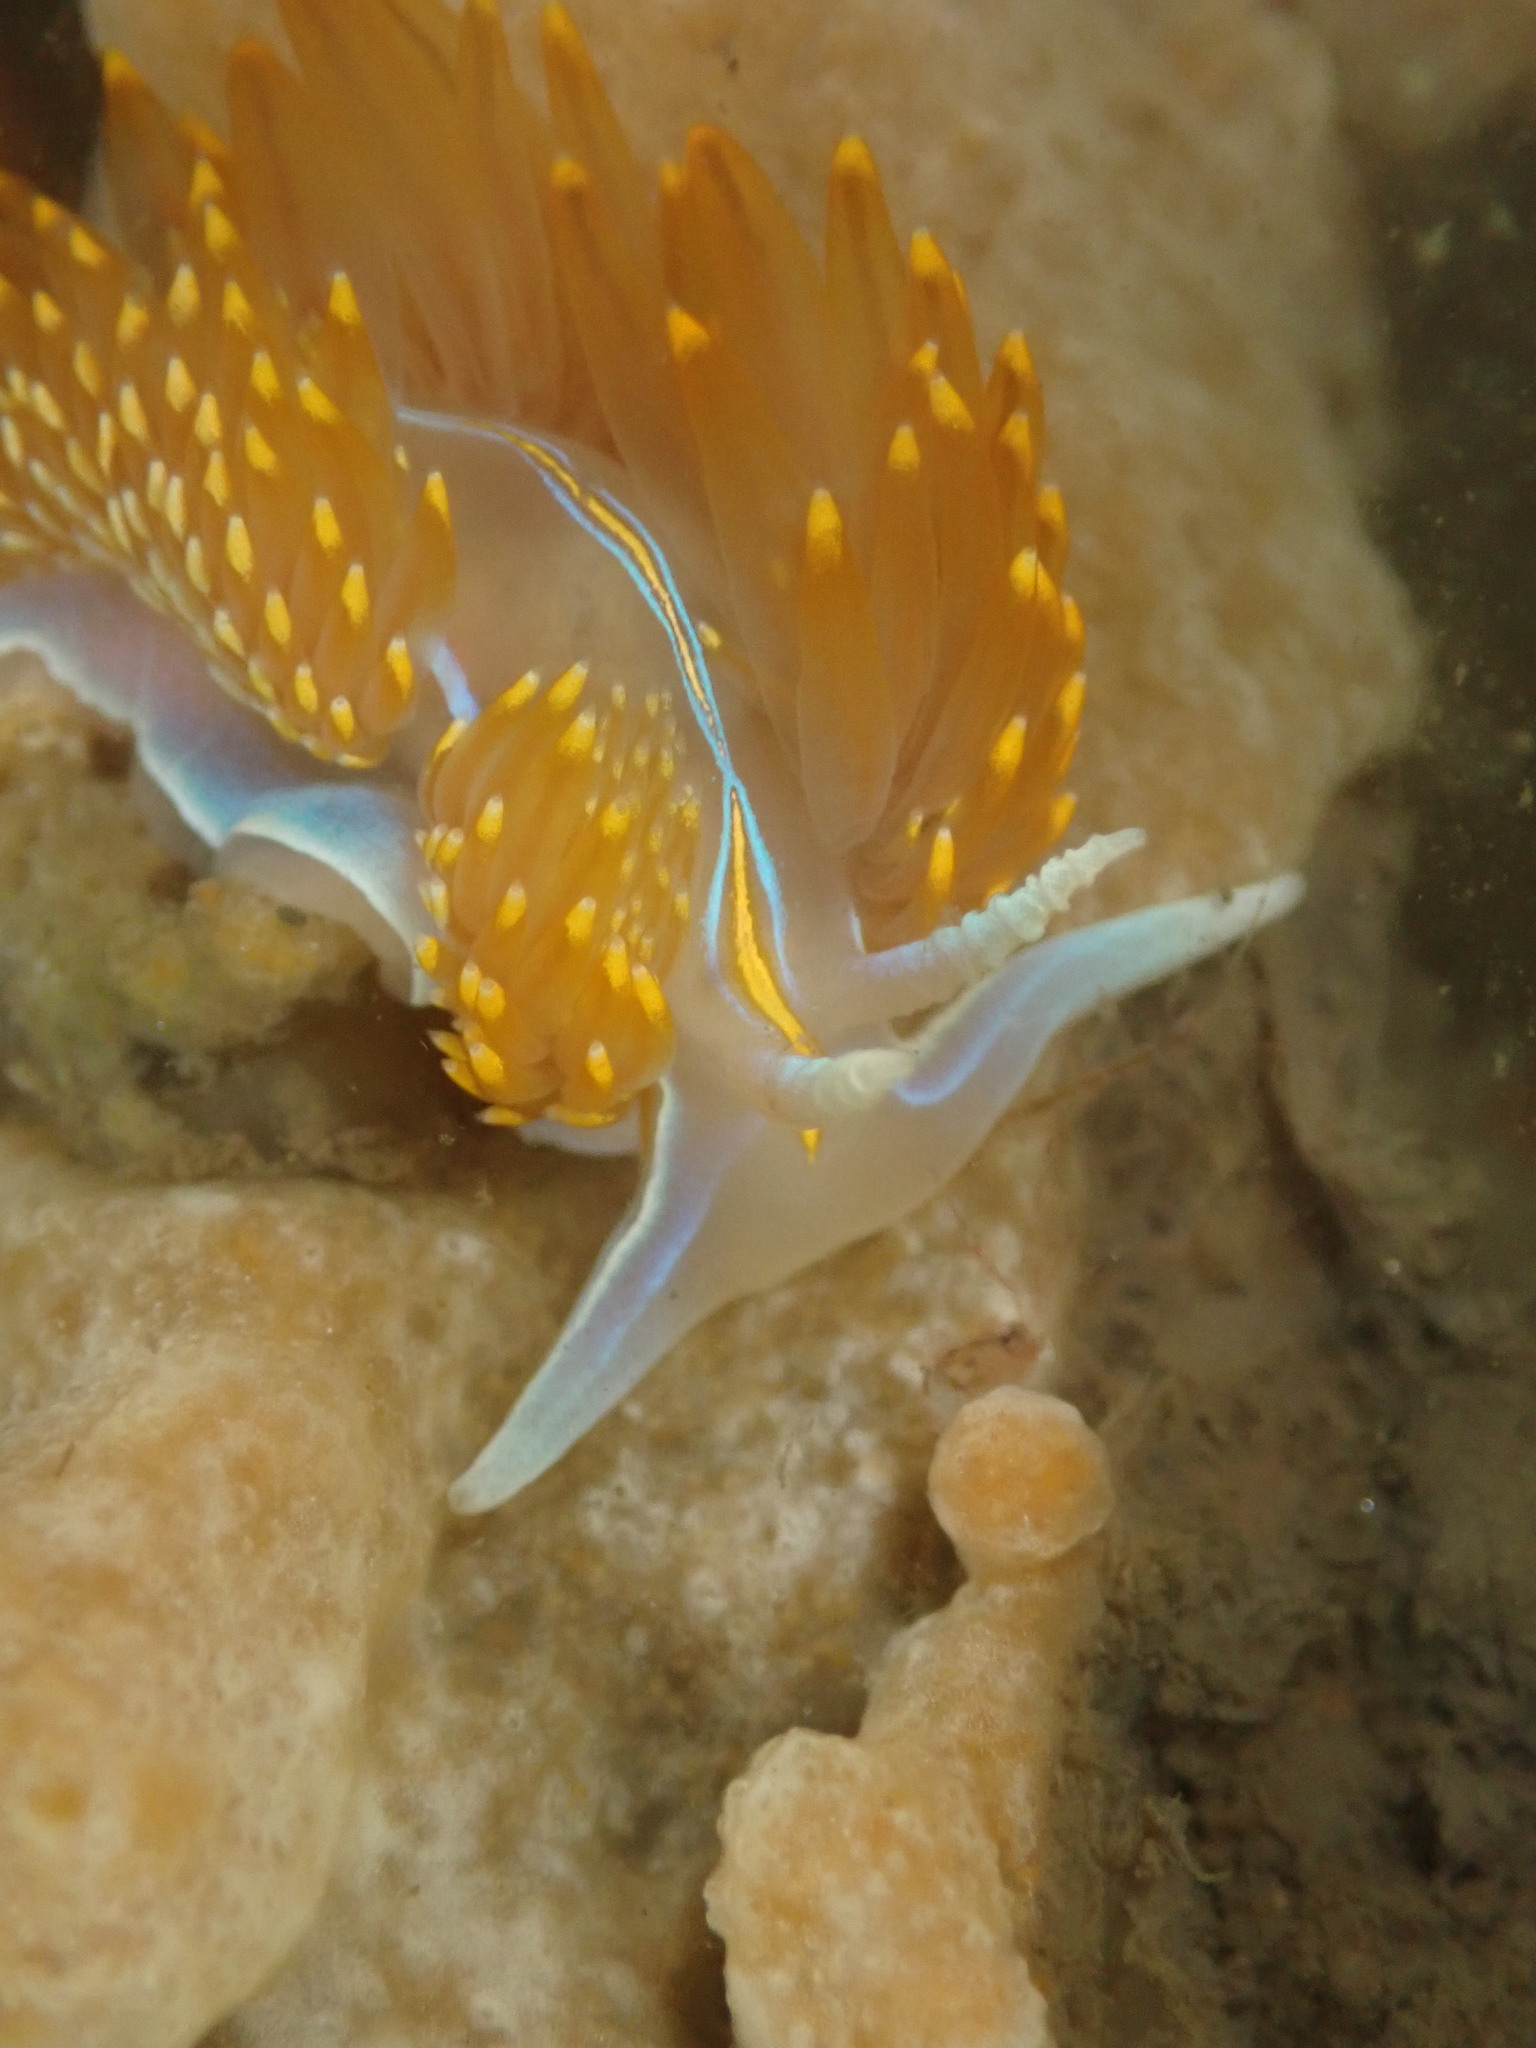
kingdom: Animalia
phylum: Mollusca
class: Gastropoda
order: Nudibranchia
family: Myrrhinidae
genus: Hermissenda
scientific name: Hermissenda opalescens
